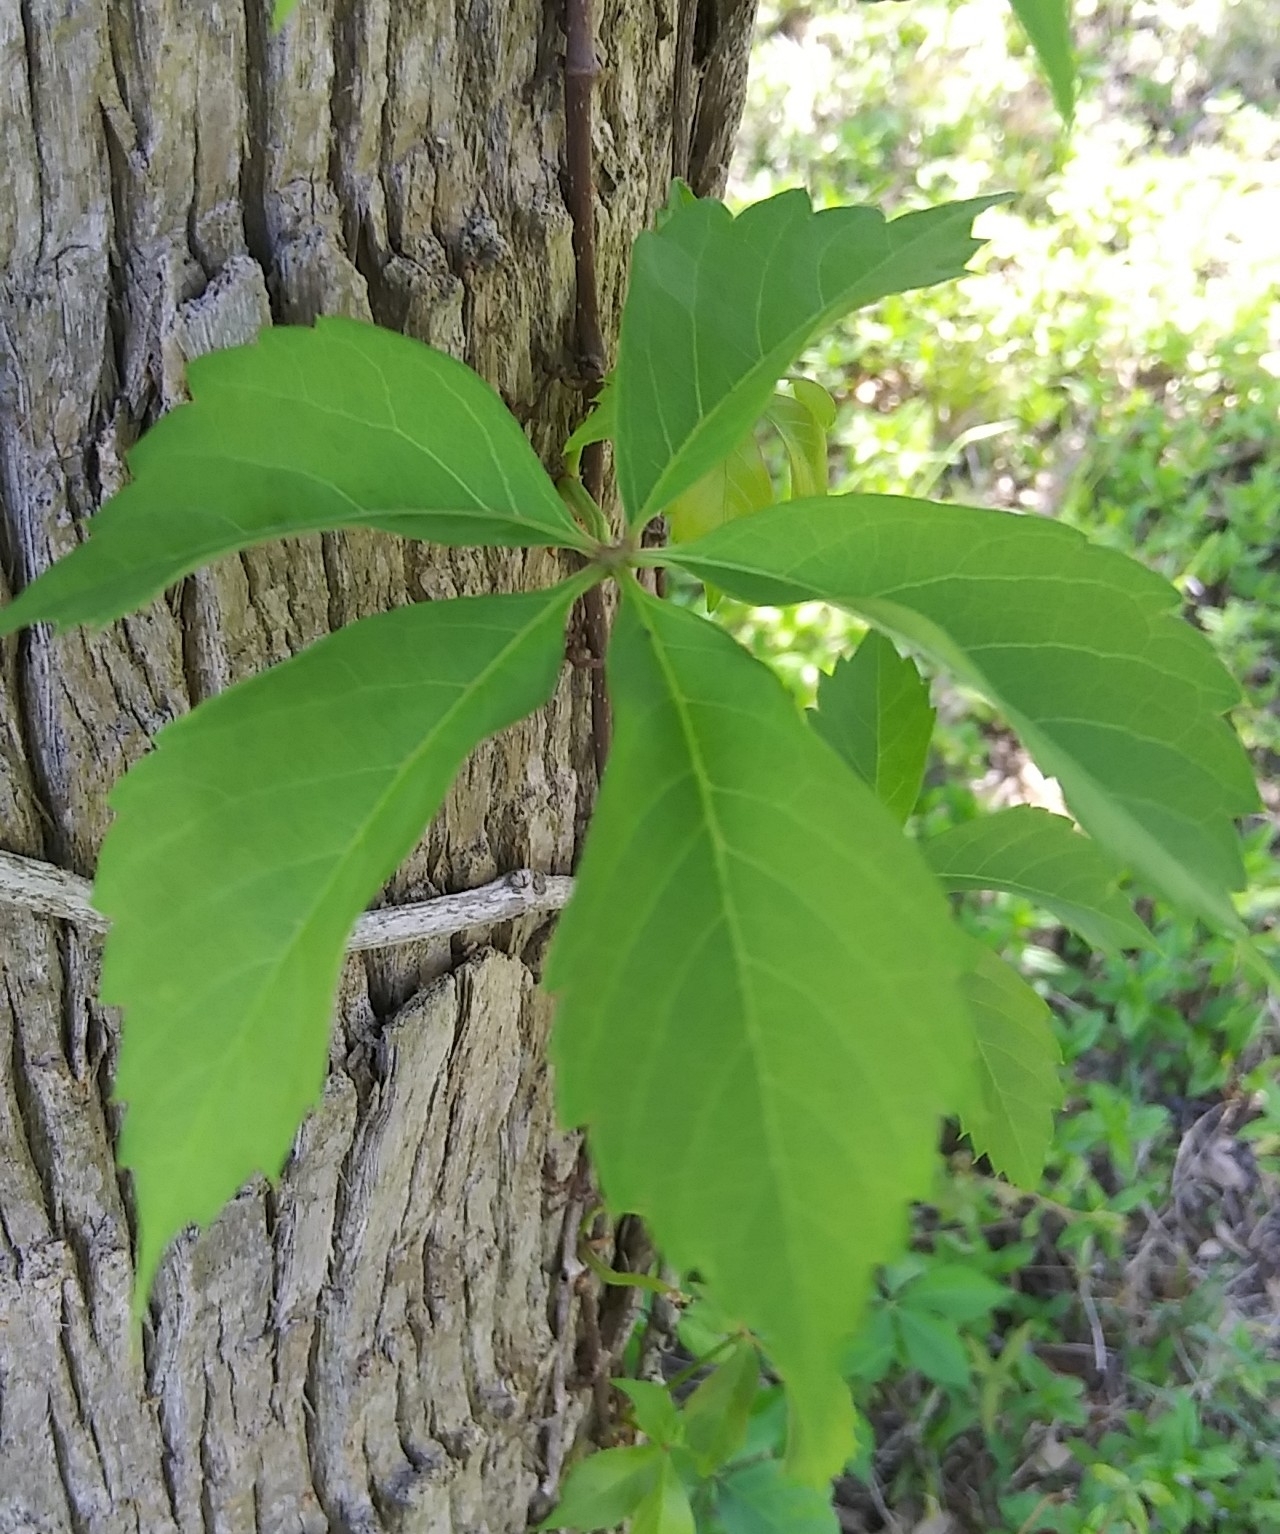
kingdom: Plantae
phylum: Tracheophyta
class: Magnoliopsida
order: Vitales
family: Vitaceae
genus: Parthenocissus
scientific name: Parthenocissus quinquefolia
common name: Virginia-creeper
